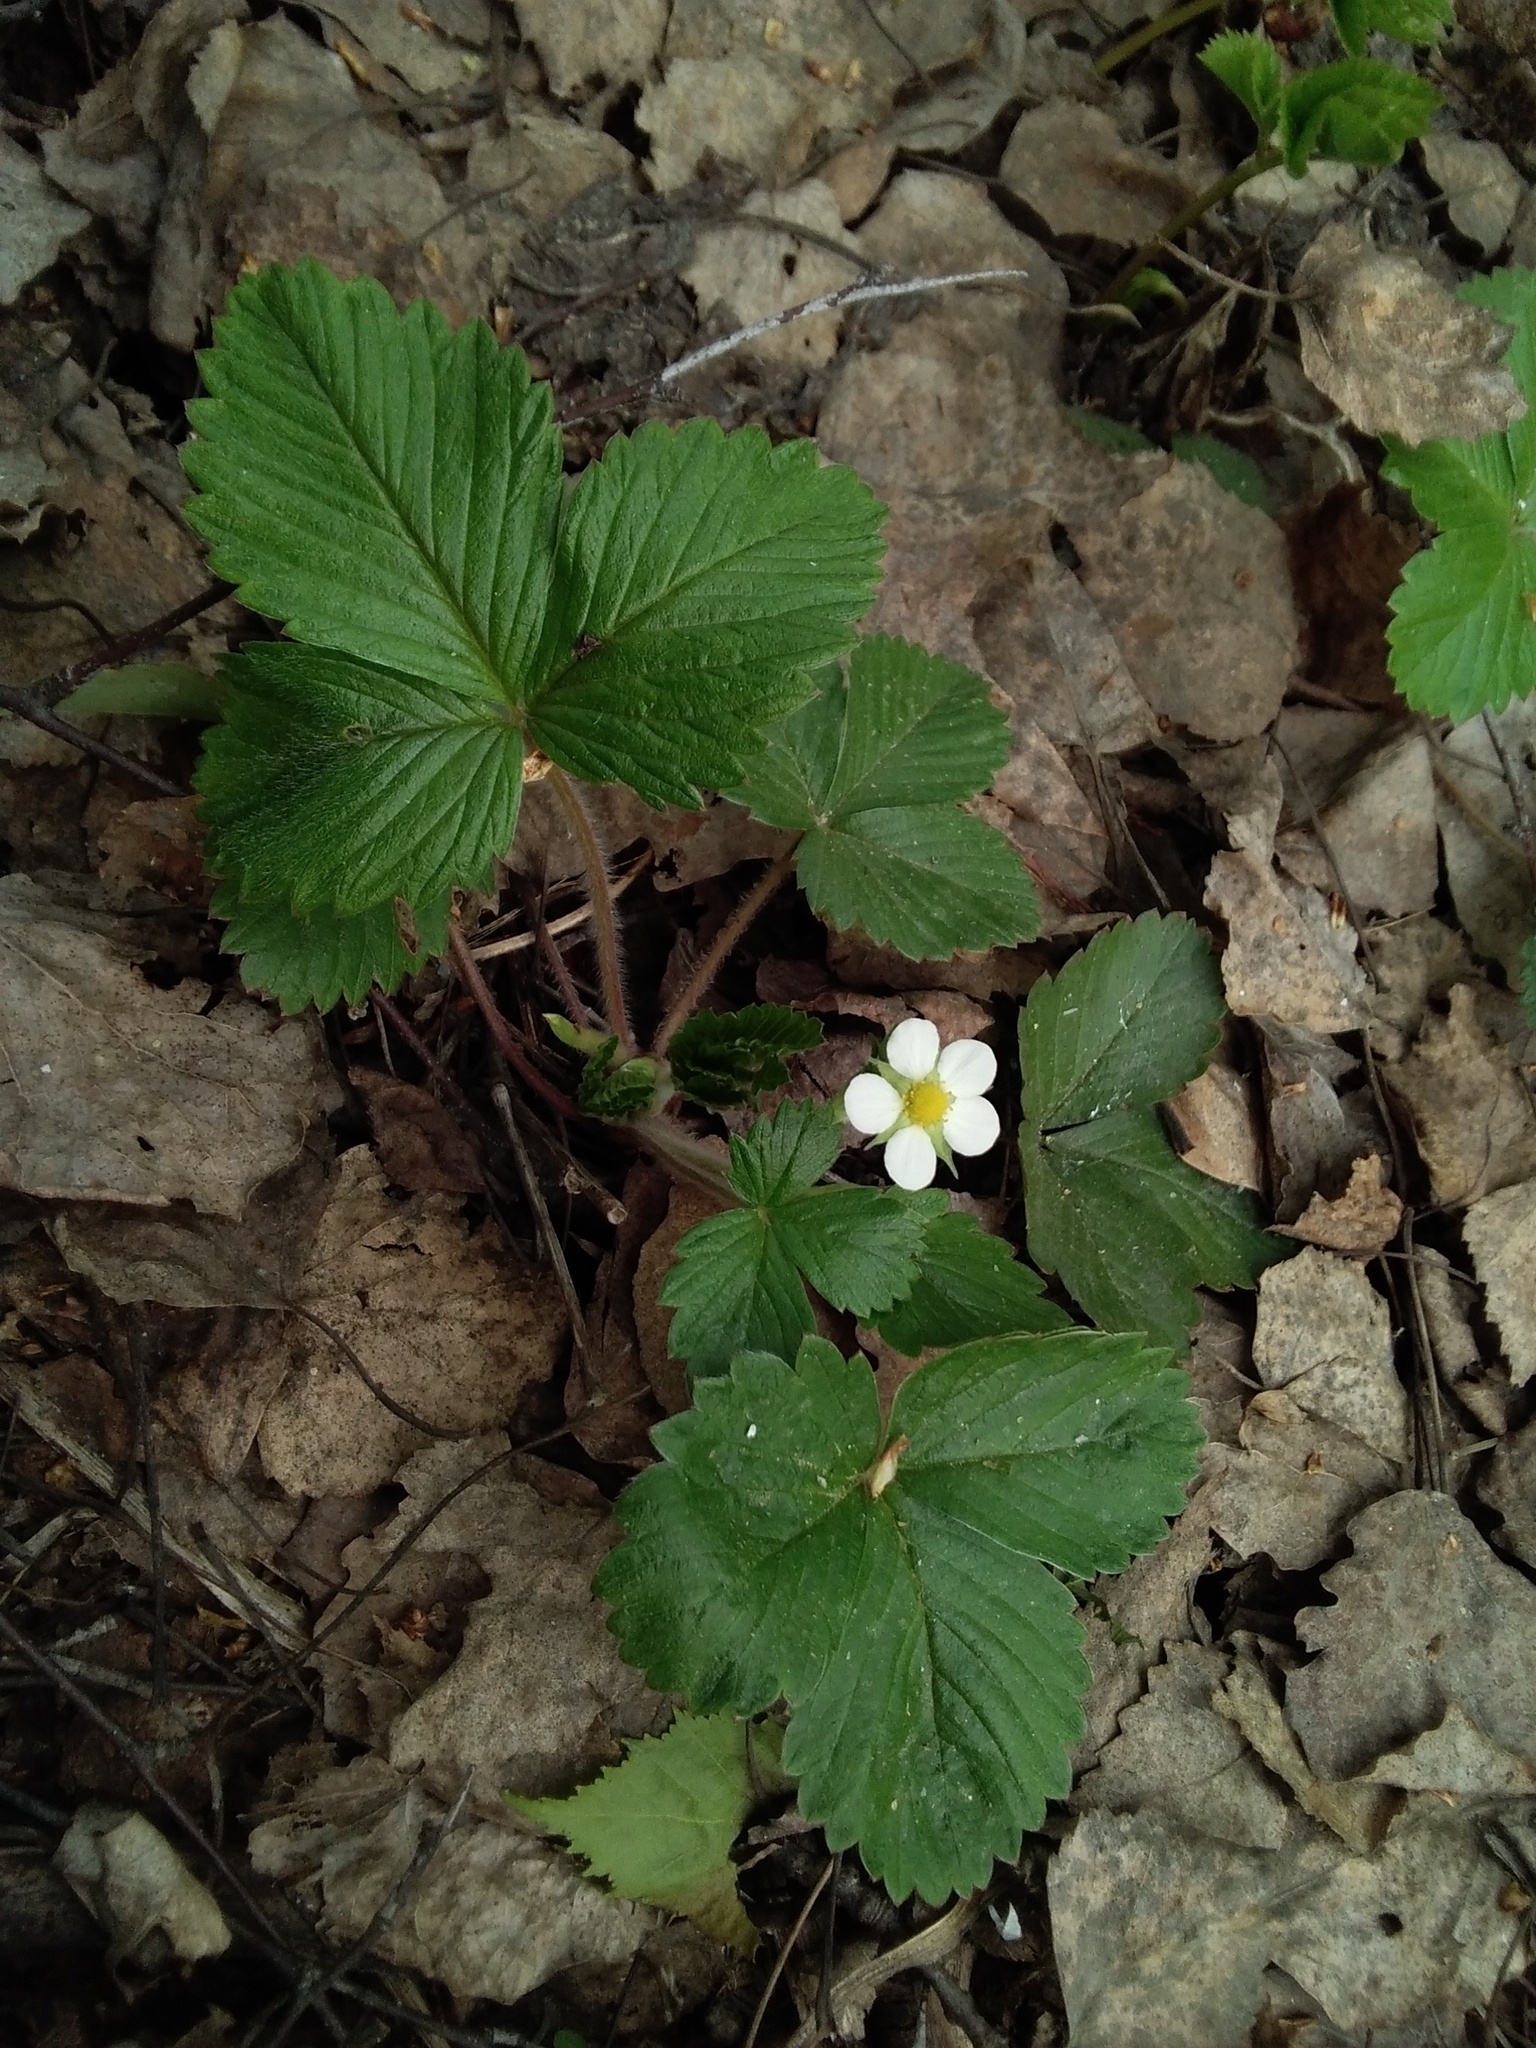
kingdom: Plantae
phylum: Tracheophyta
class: Magnoliopsida
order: Rosales
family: Rosaceae
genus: Fragaria
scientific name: Fragaria vesca
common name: Wild strawberry
